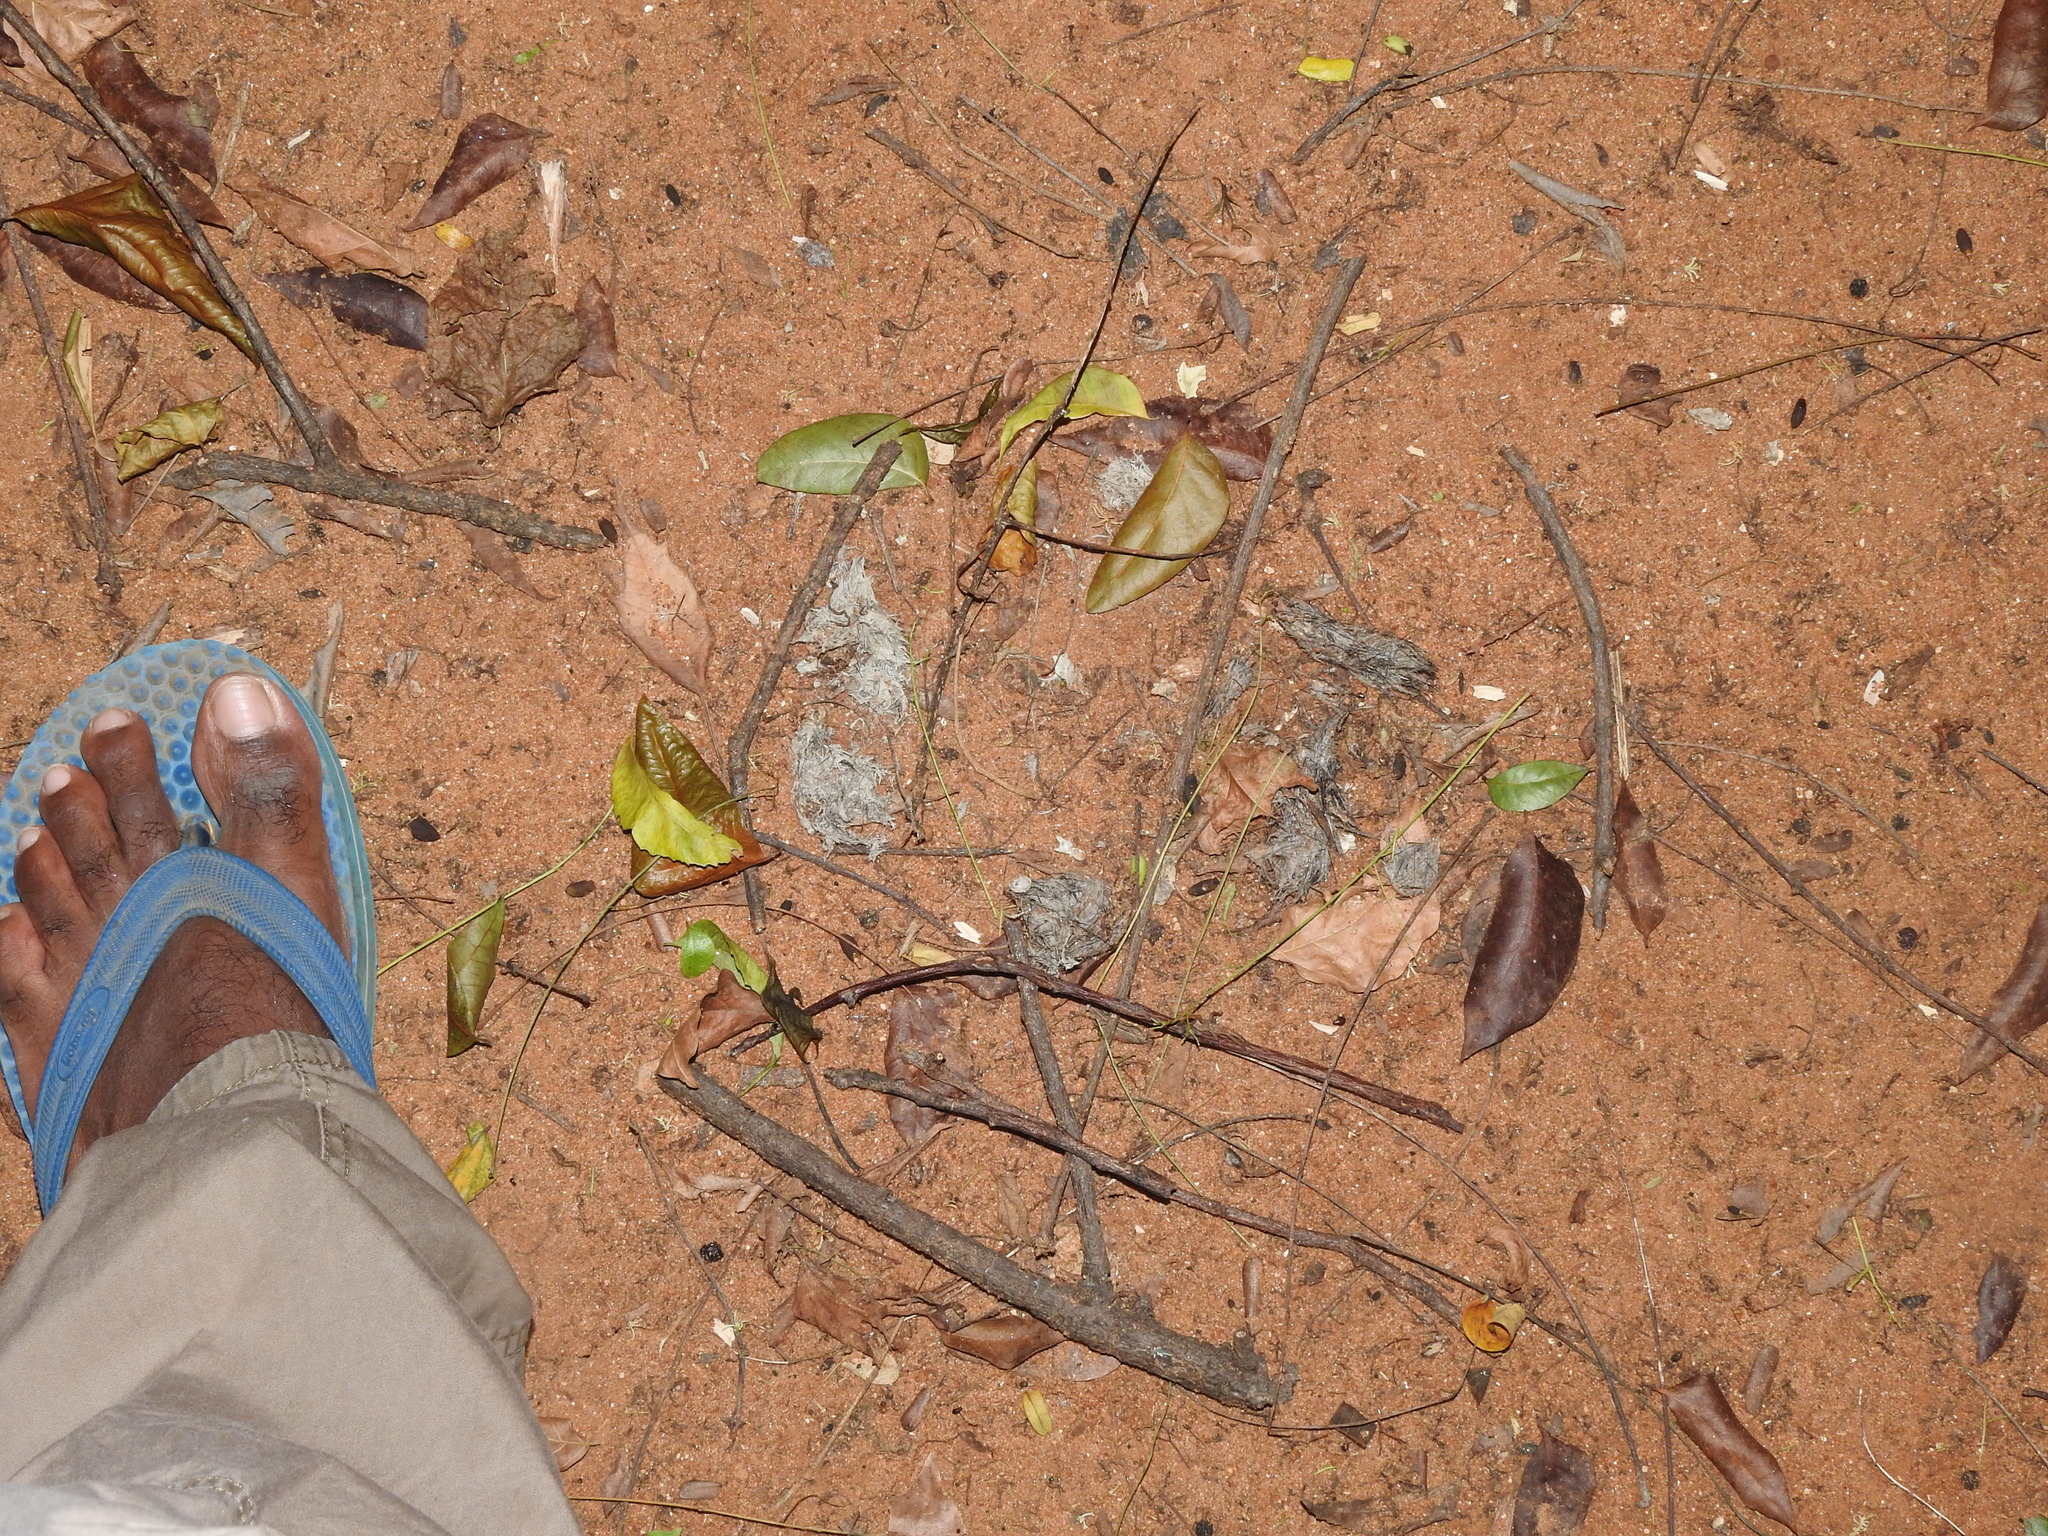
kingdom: Animalia
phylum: Chordata
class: Mammalia
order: Carnivora
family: Felidae
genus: Felis
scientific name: Felis chaus
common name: Jungle cat
